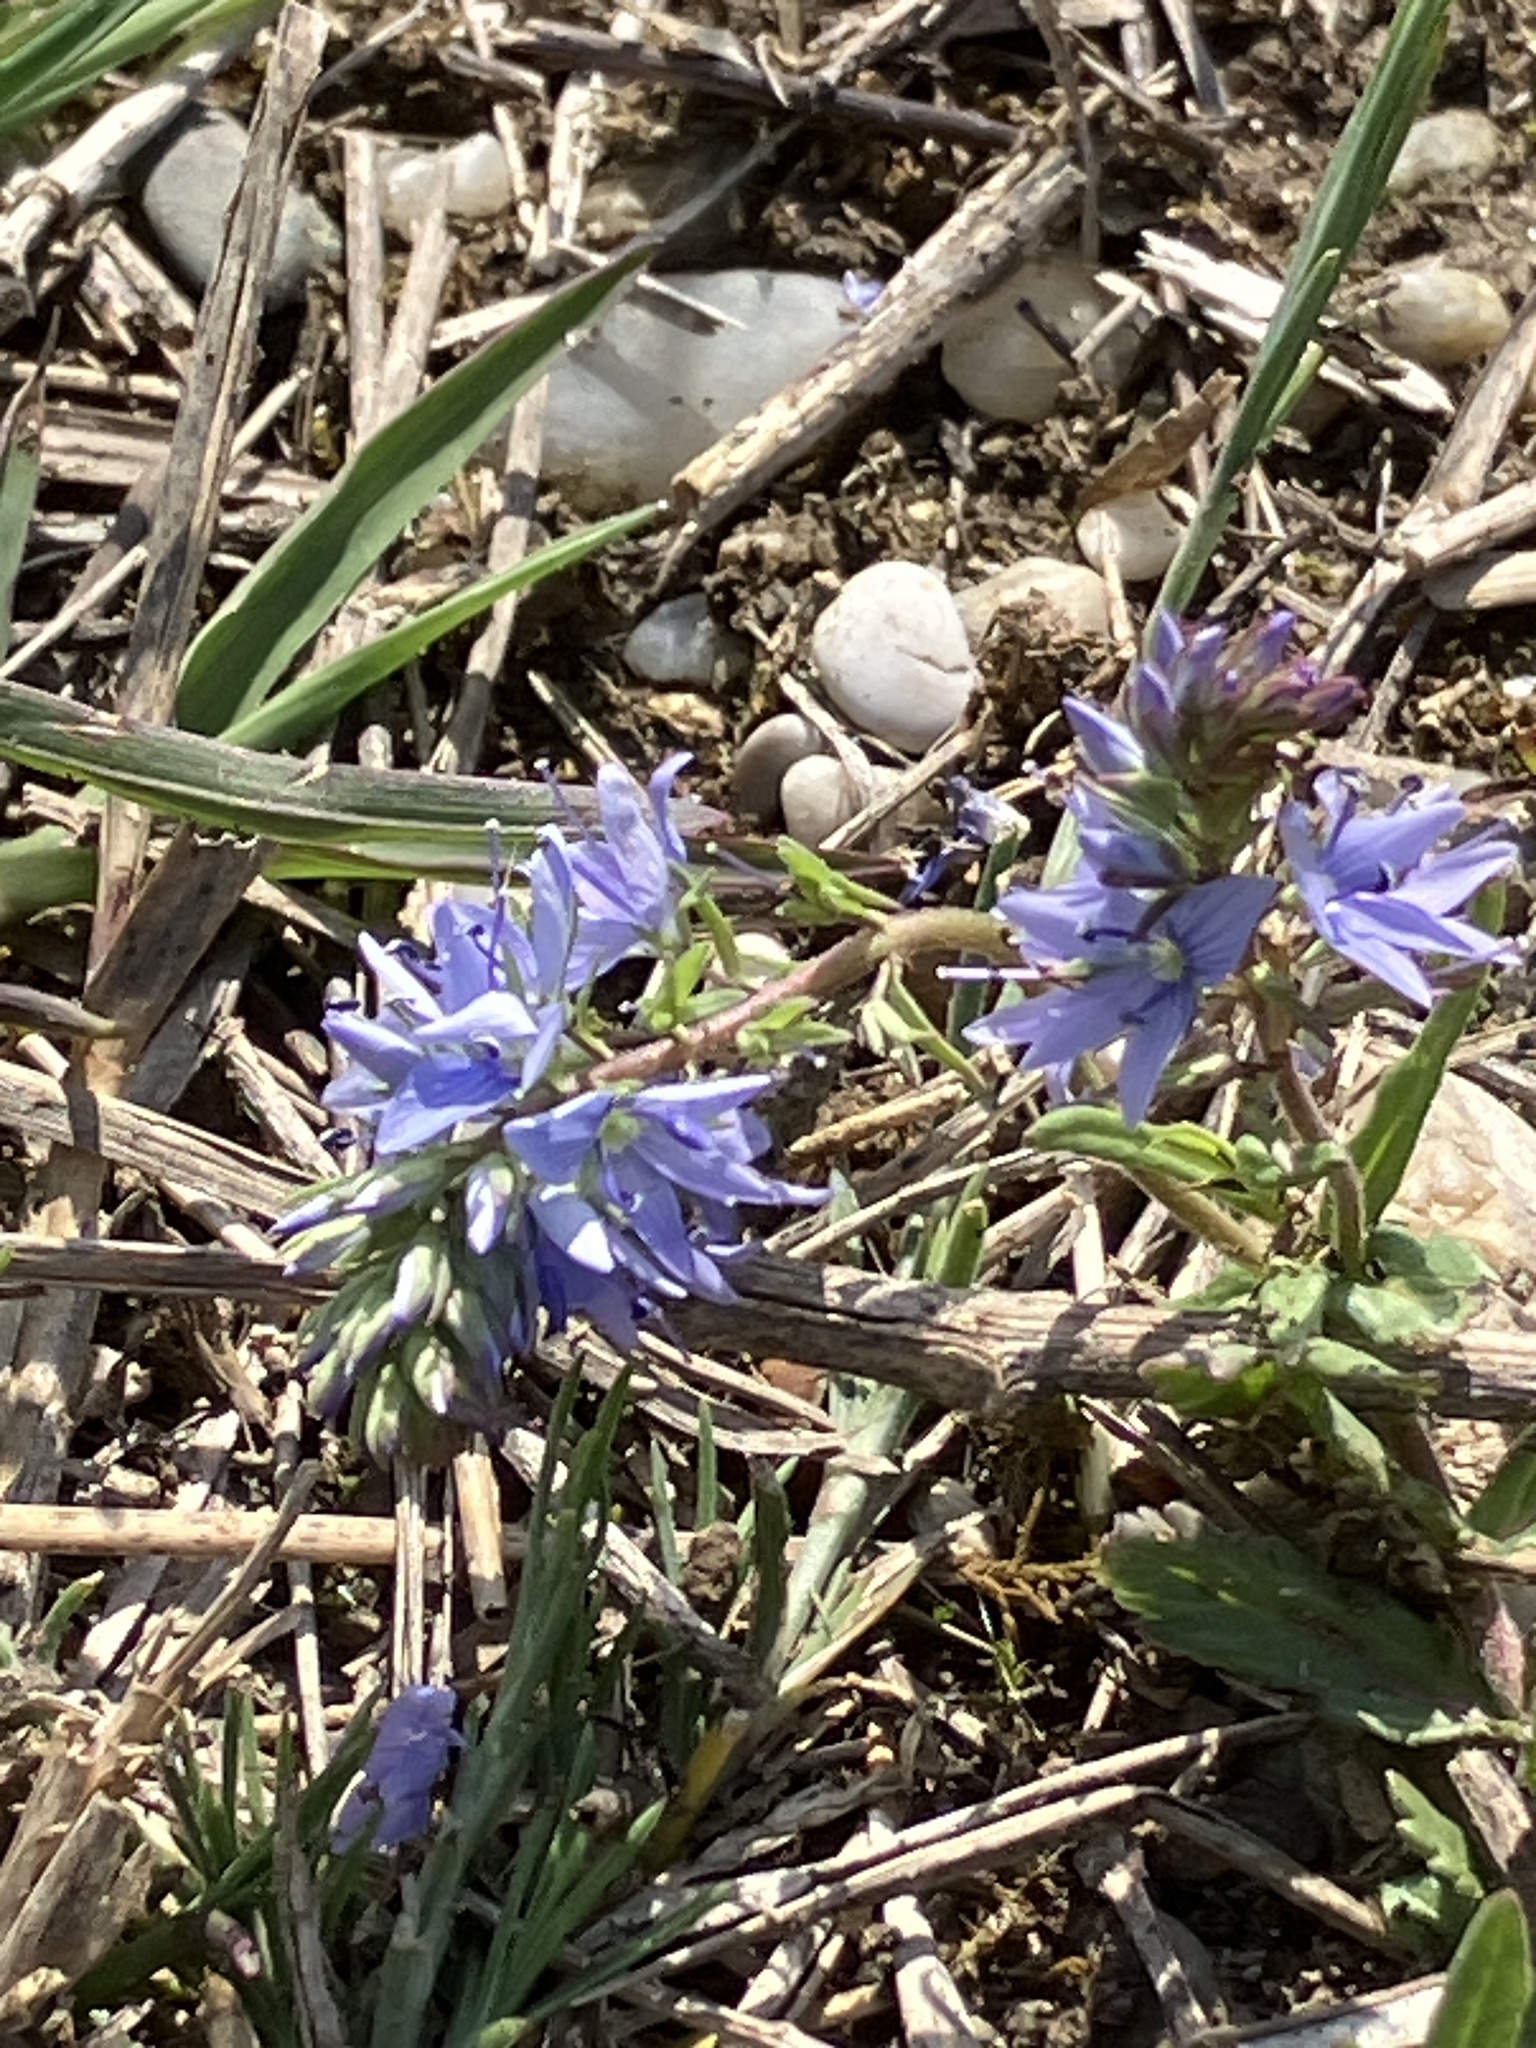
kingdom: Plantae
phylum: Tracheophyta
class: Magnoliopsida
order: Lamiales
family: Plantaginaceae
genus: Veronica
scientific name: Veronica prostrata
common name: Prostrate speedwell
